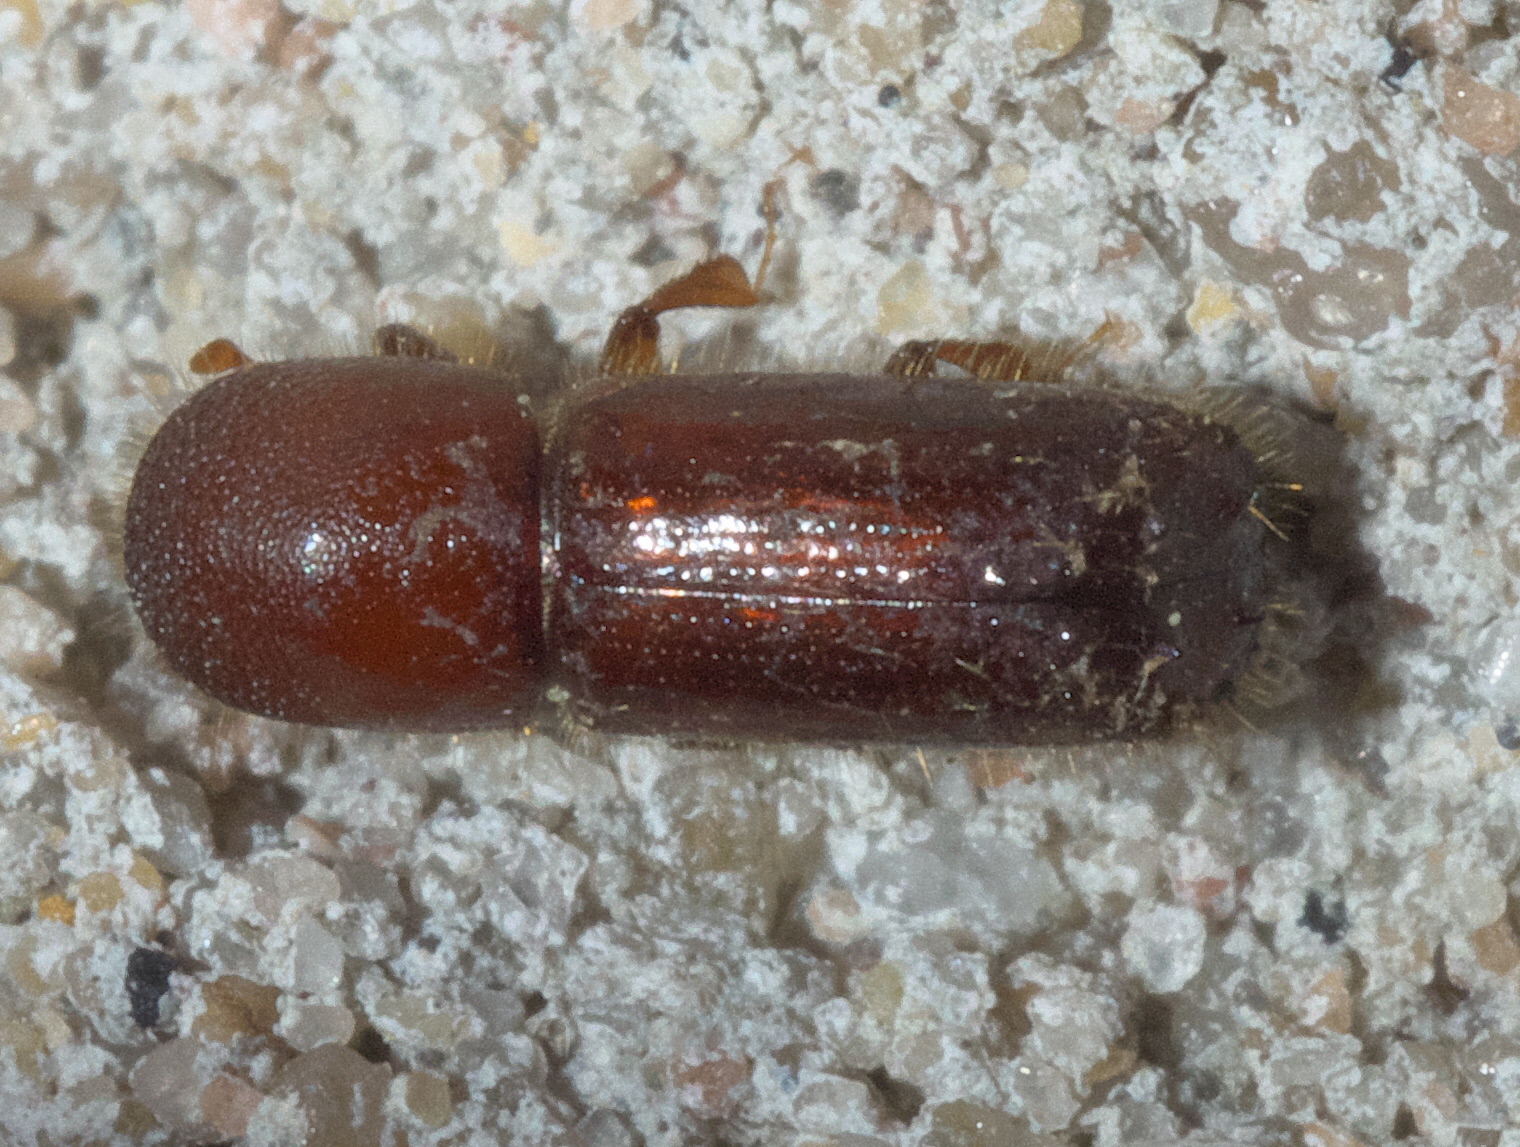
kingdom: Animalia
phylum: Arthropoda
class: Insecta
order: Coleoptera
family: Curculionidae
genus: Xyleborus
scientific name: Xyleborus celsus
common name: Weevil
